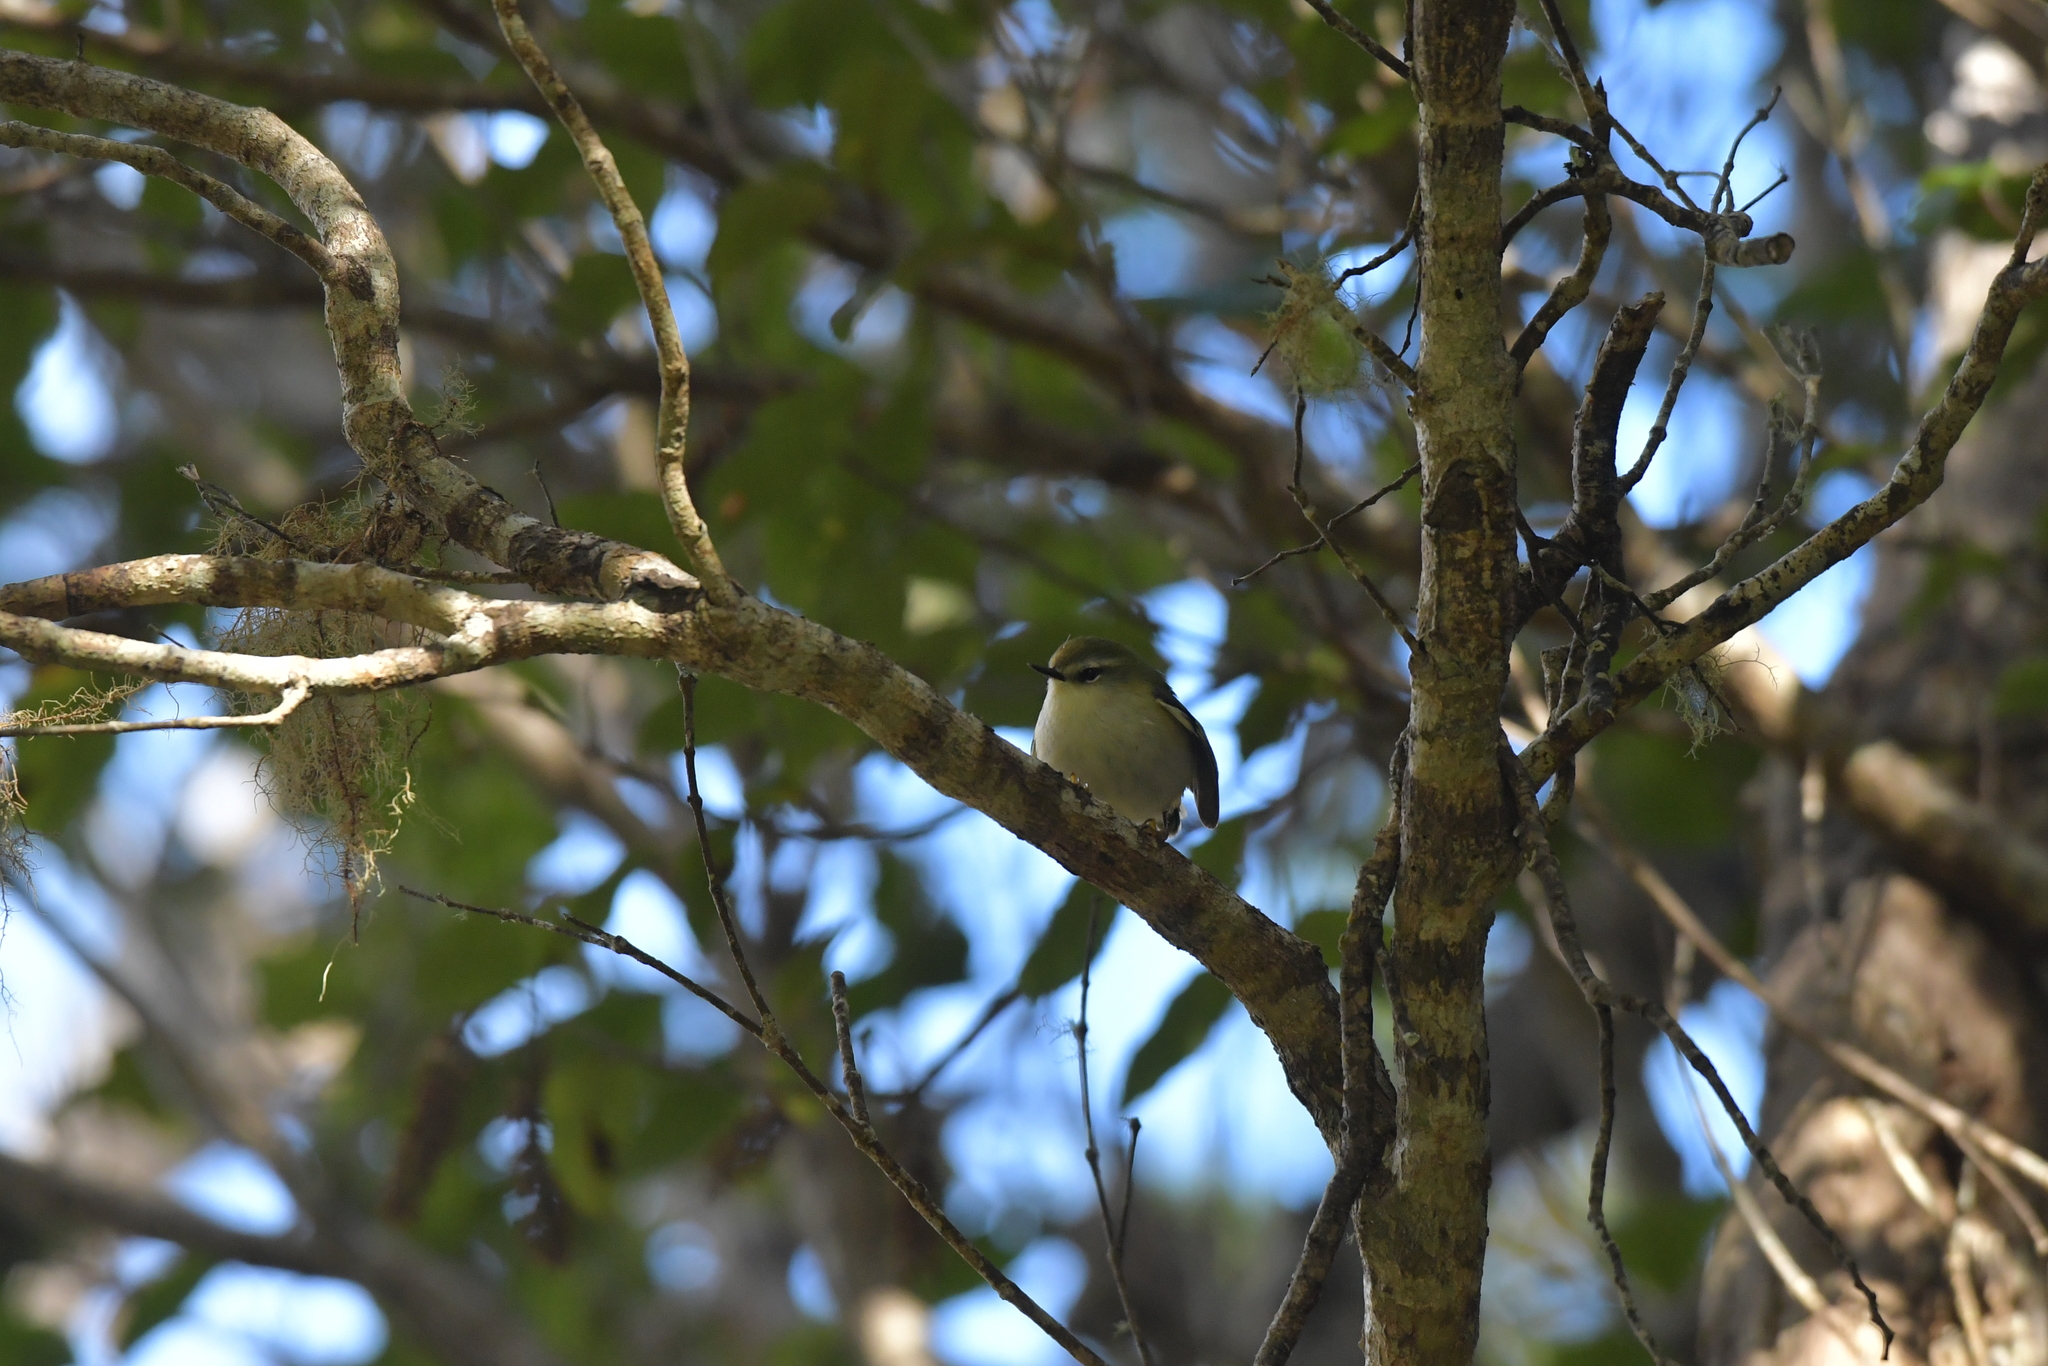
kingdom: Animalia
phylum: Chordata
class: Aves
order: Passeriformes
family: Acanthisittidae
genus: Acanthisitta
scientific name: Acanthisitta chloris
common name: Rifleman
